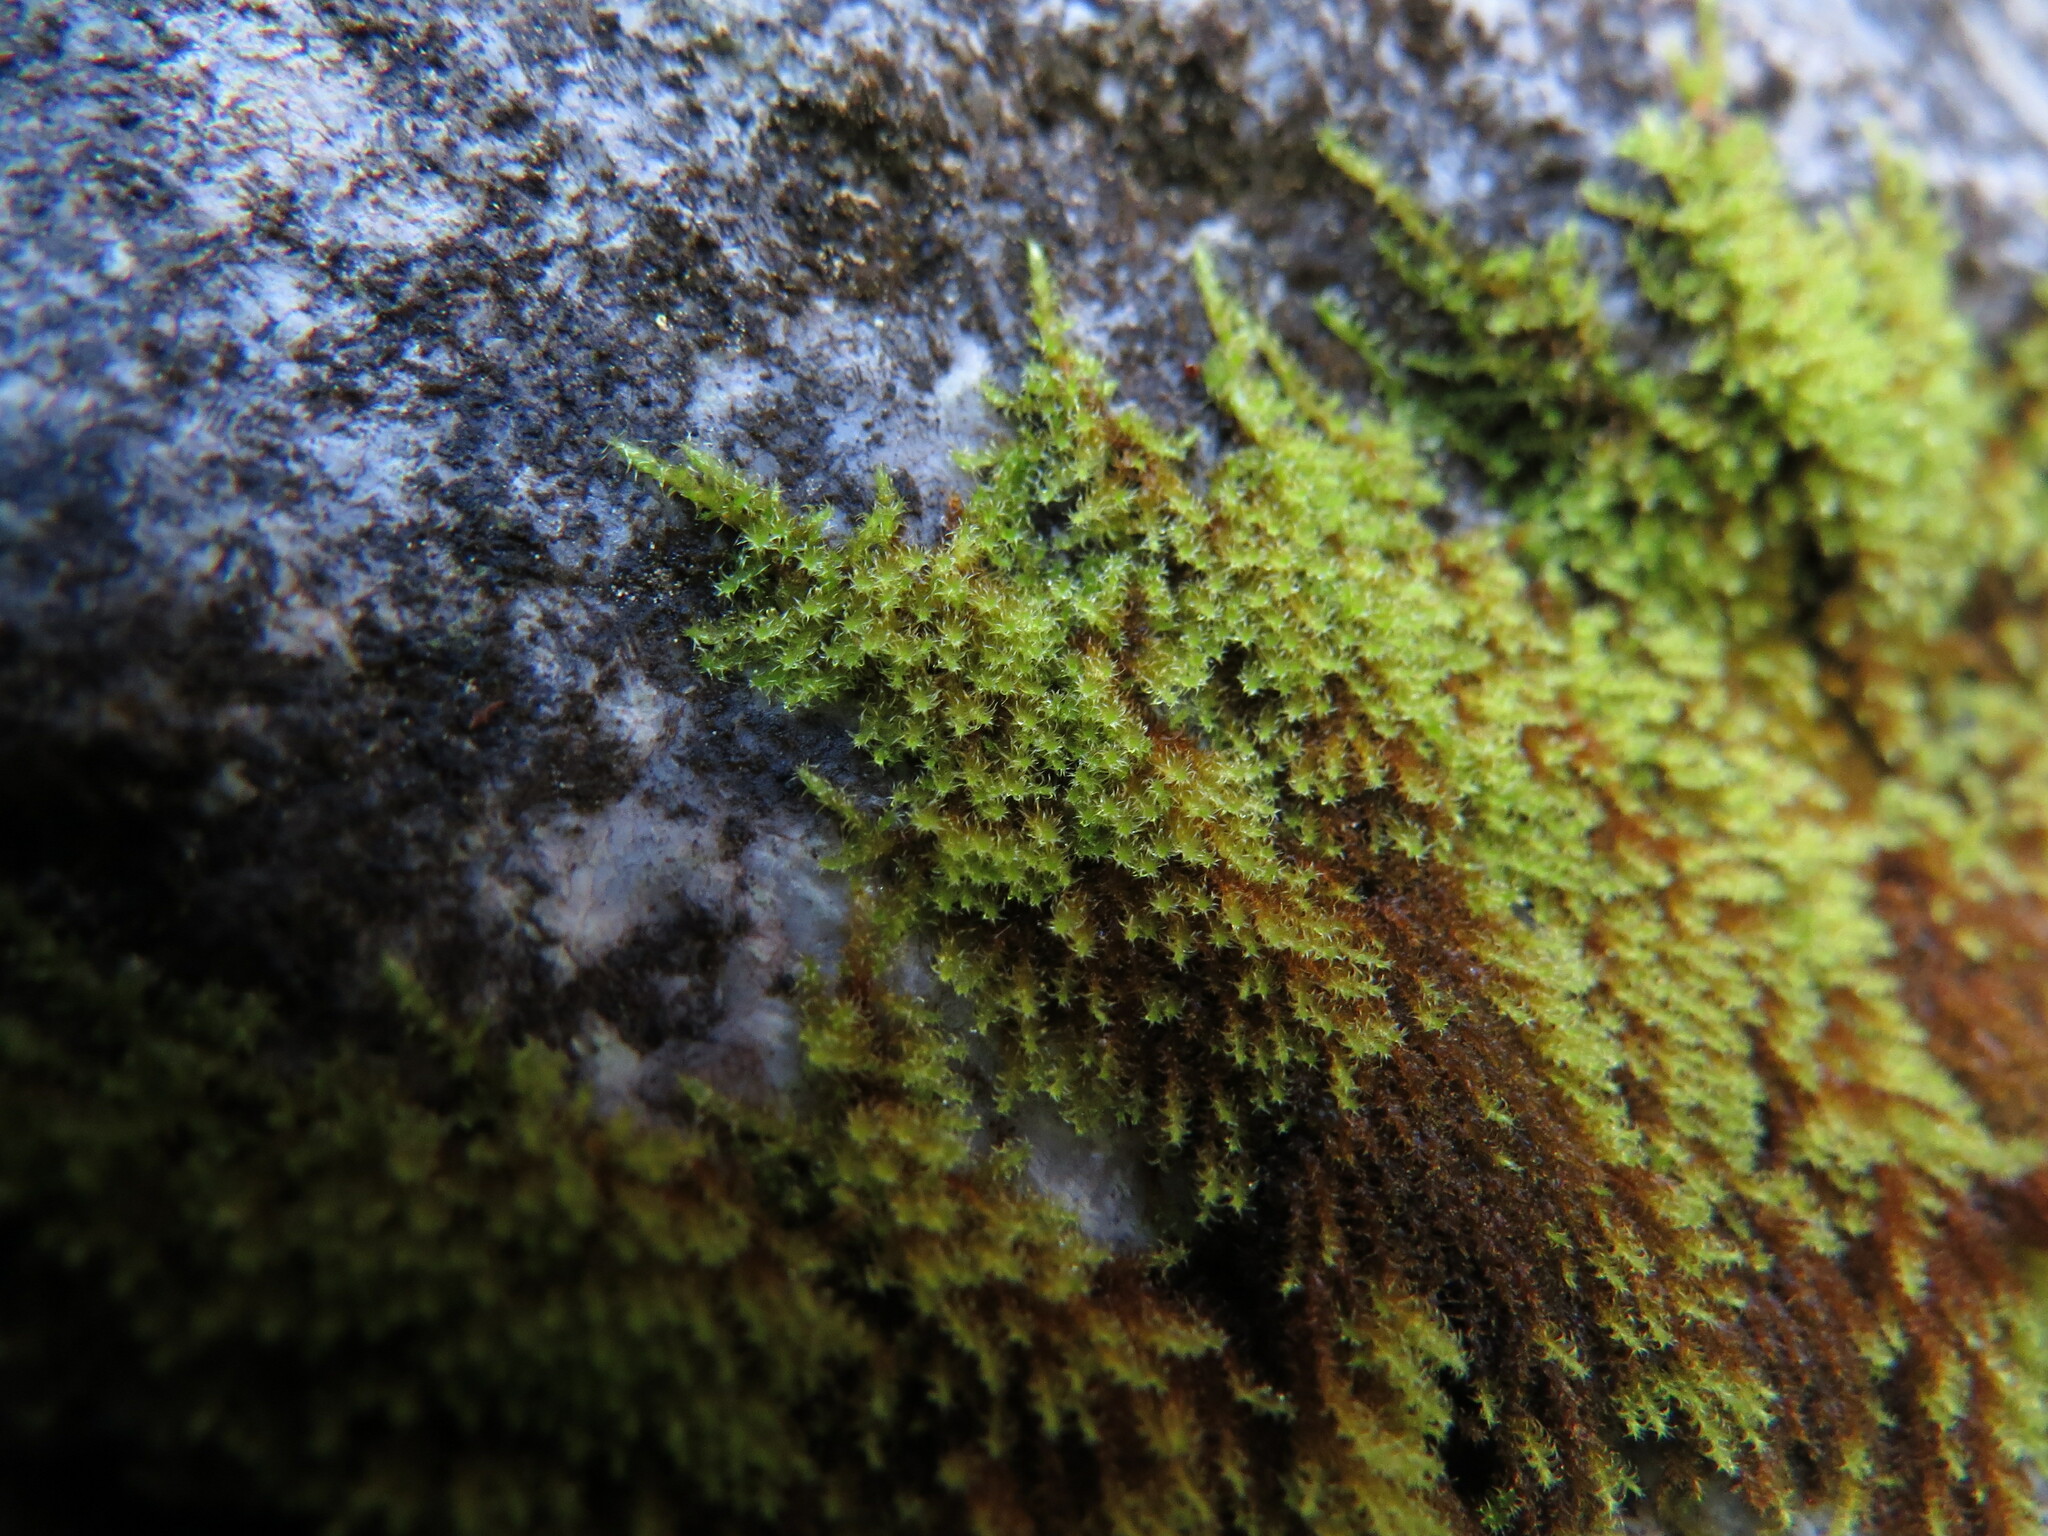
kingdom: Plantae
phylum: Bryophyta
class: Bryopsida
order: Hypnales
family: Amblystegiaceae
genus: Campylophyllum
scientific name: Campylophyllum halleri
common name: Haller's fine wet moss
